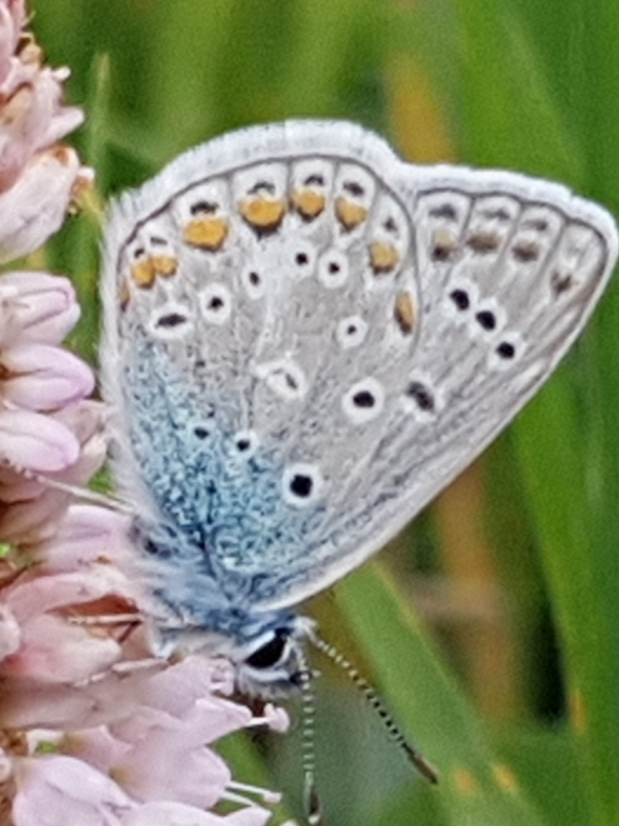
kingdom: Animalia
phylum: Arthropoda
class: Insecta
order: Lepidoptera
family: Lycaenidae
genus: Polyommatus
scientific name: Polyommatus icarus
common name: Common blue
